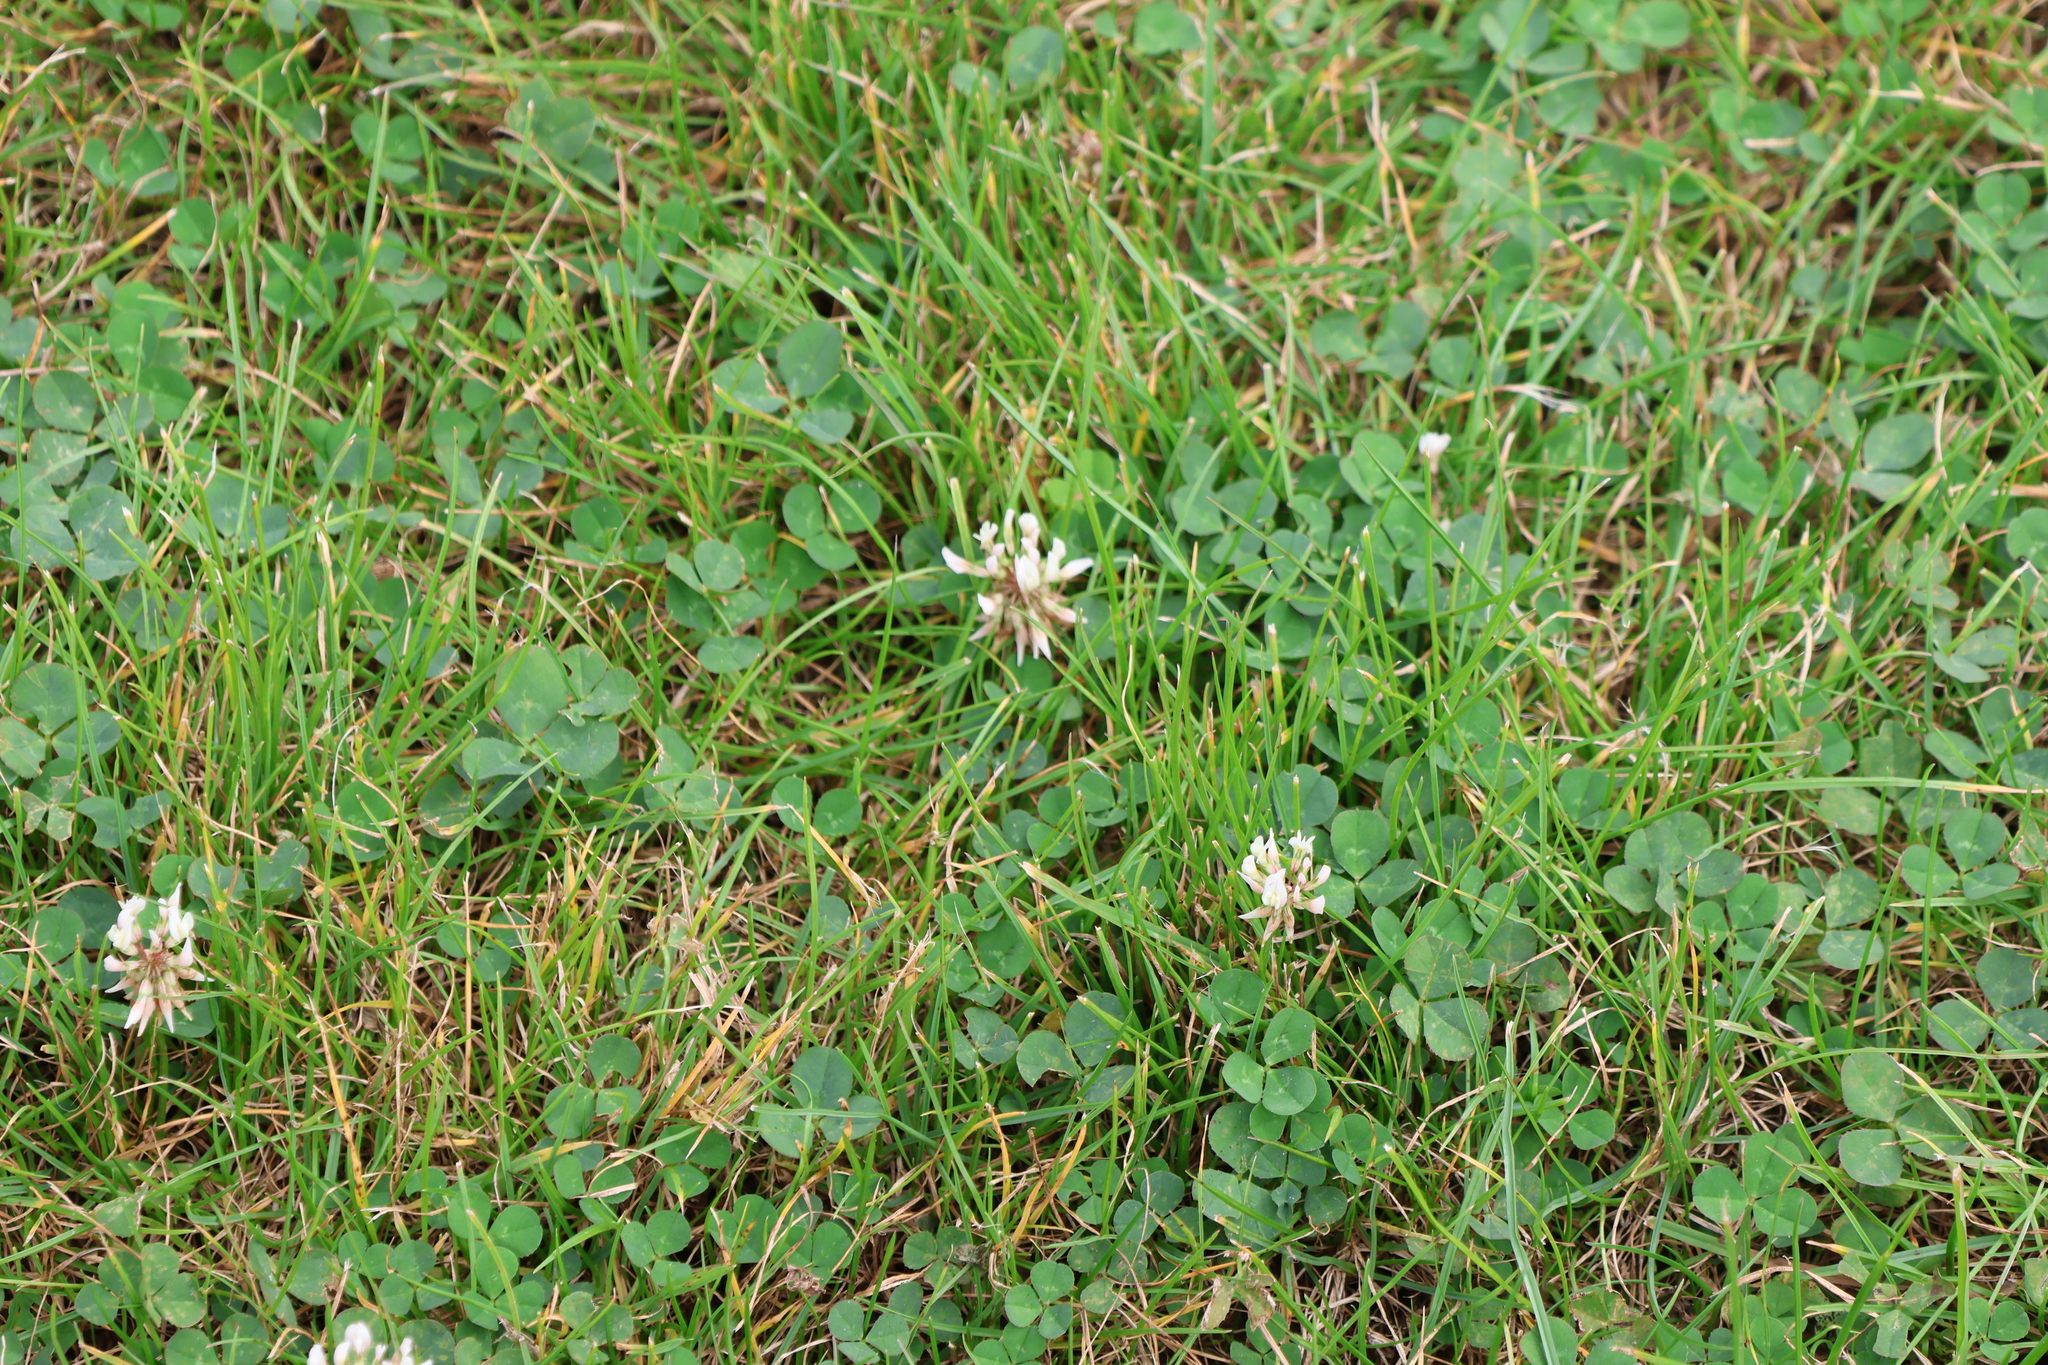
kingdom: Plantae
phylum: Tracheophyta
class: Magnoliopsida
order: Fabales
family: Fabaceae
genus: Trifolium
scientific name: Trifolium repens
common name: White clover
